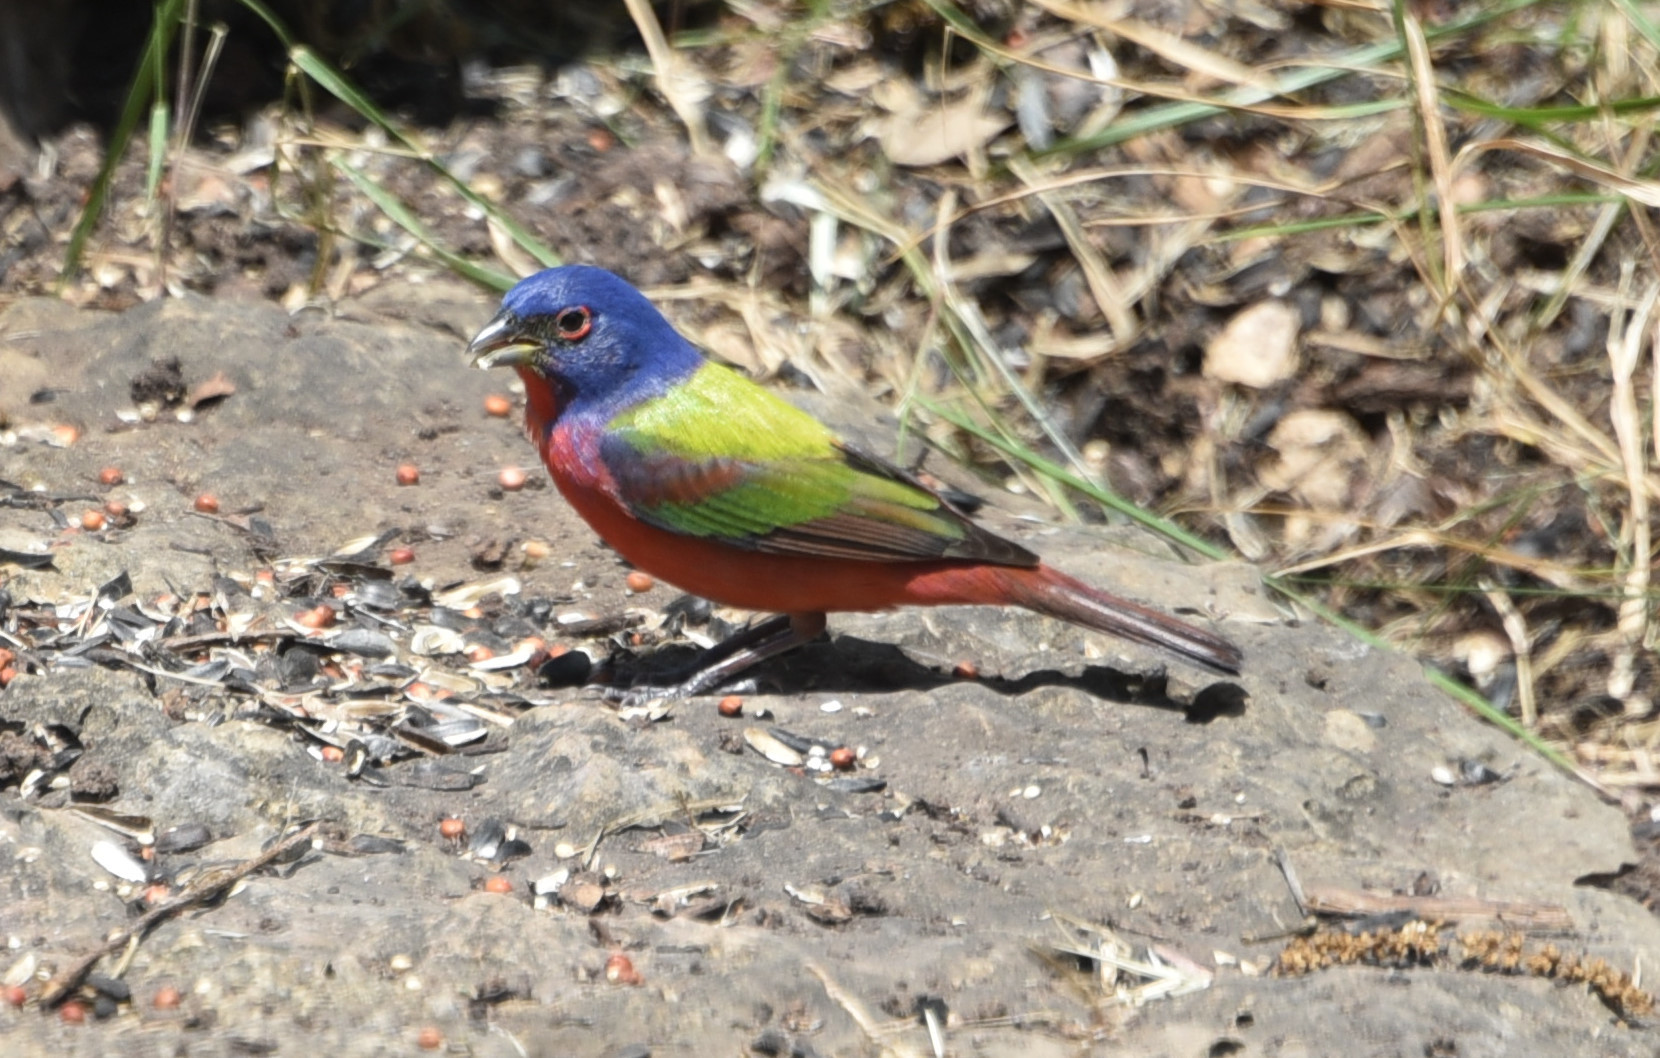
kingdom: Animalia
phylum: Chordata
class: Aves
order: Passeriformes
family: Cardinalidae
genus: Passerina
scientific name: Passerina ciris
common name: Painted bunting
